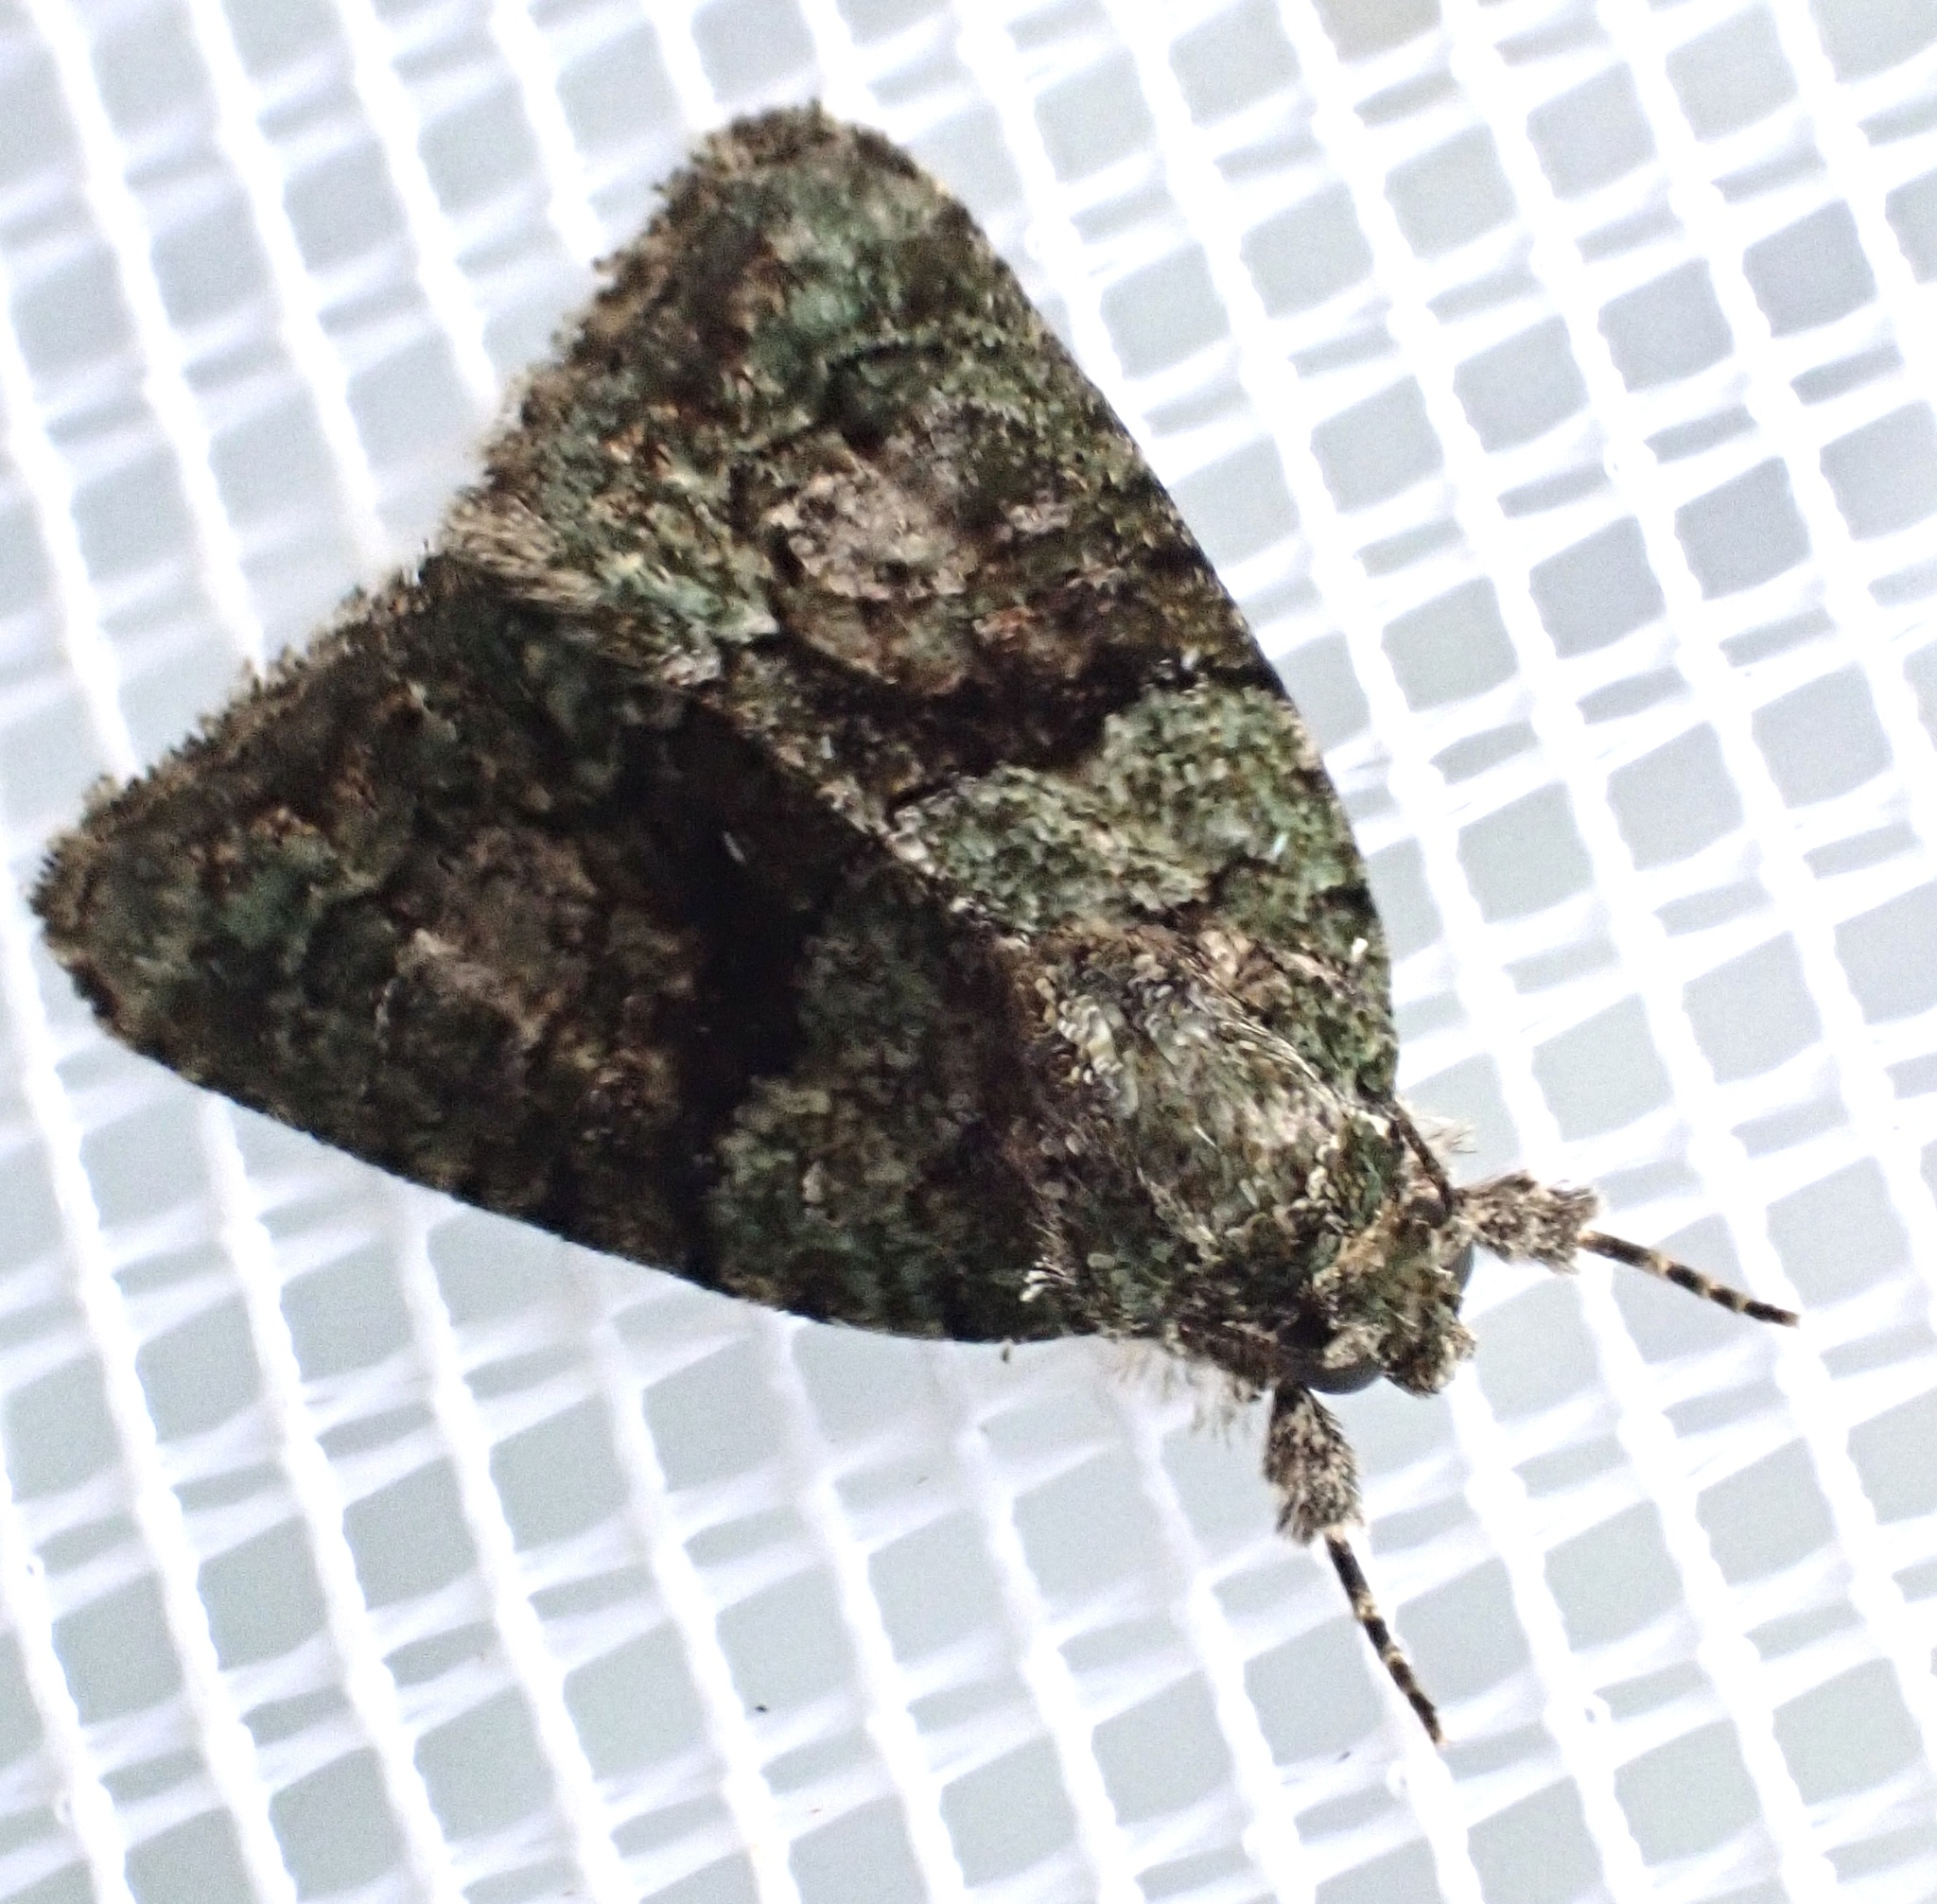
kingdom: Animalia
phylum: Arthropoda
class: Insecta
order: Lepidoptera
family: Noctuidae
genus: Cryphia
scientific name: Cryphia algae
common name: Tree-lichen beauty
